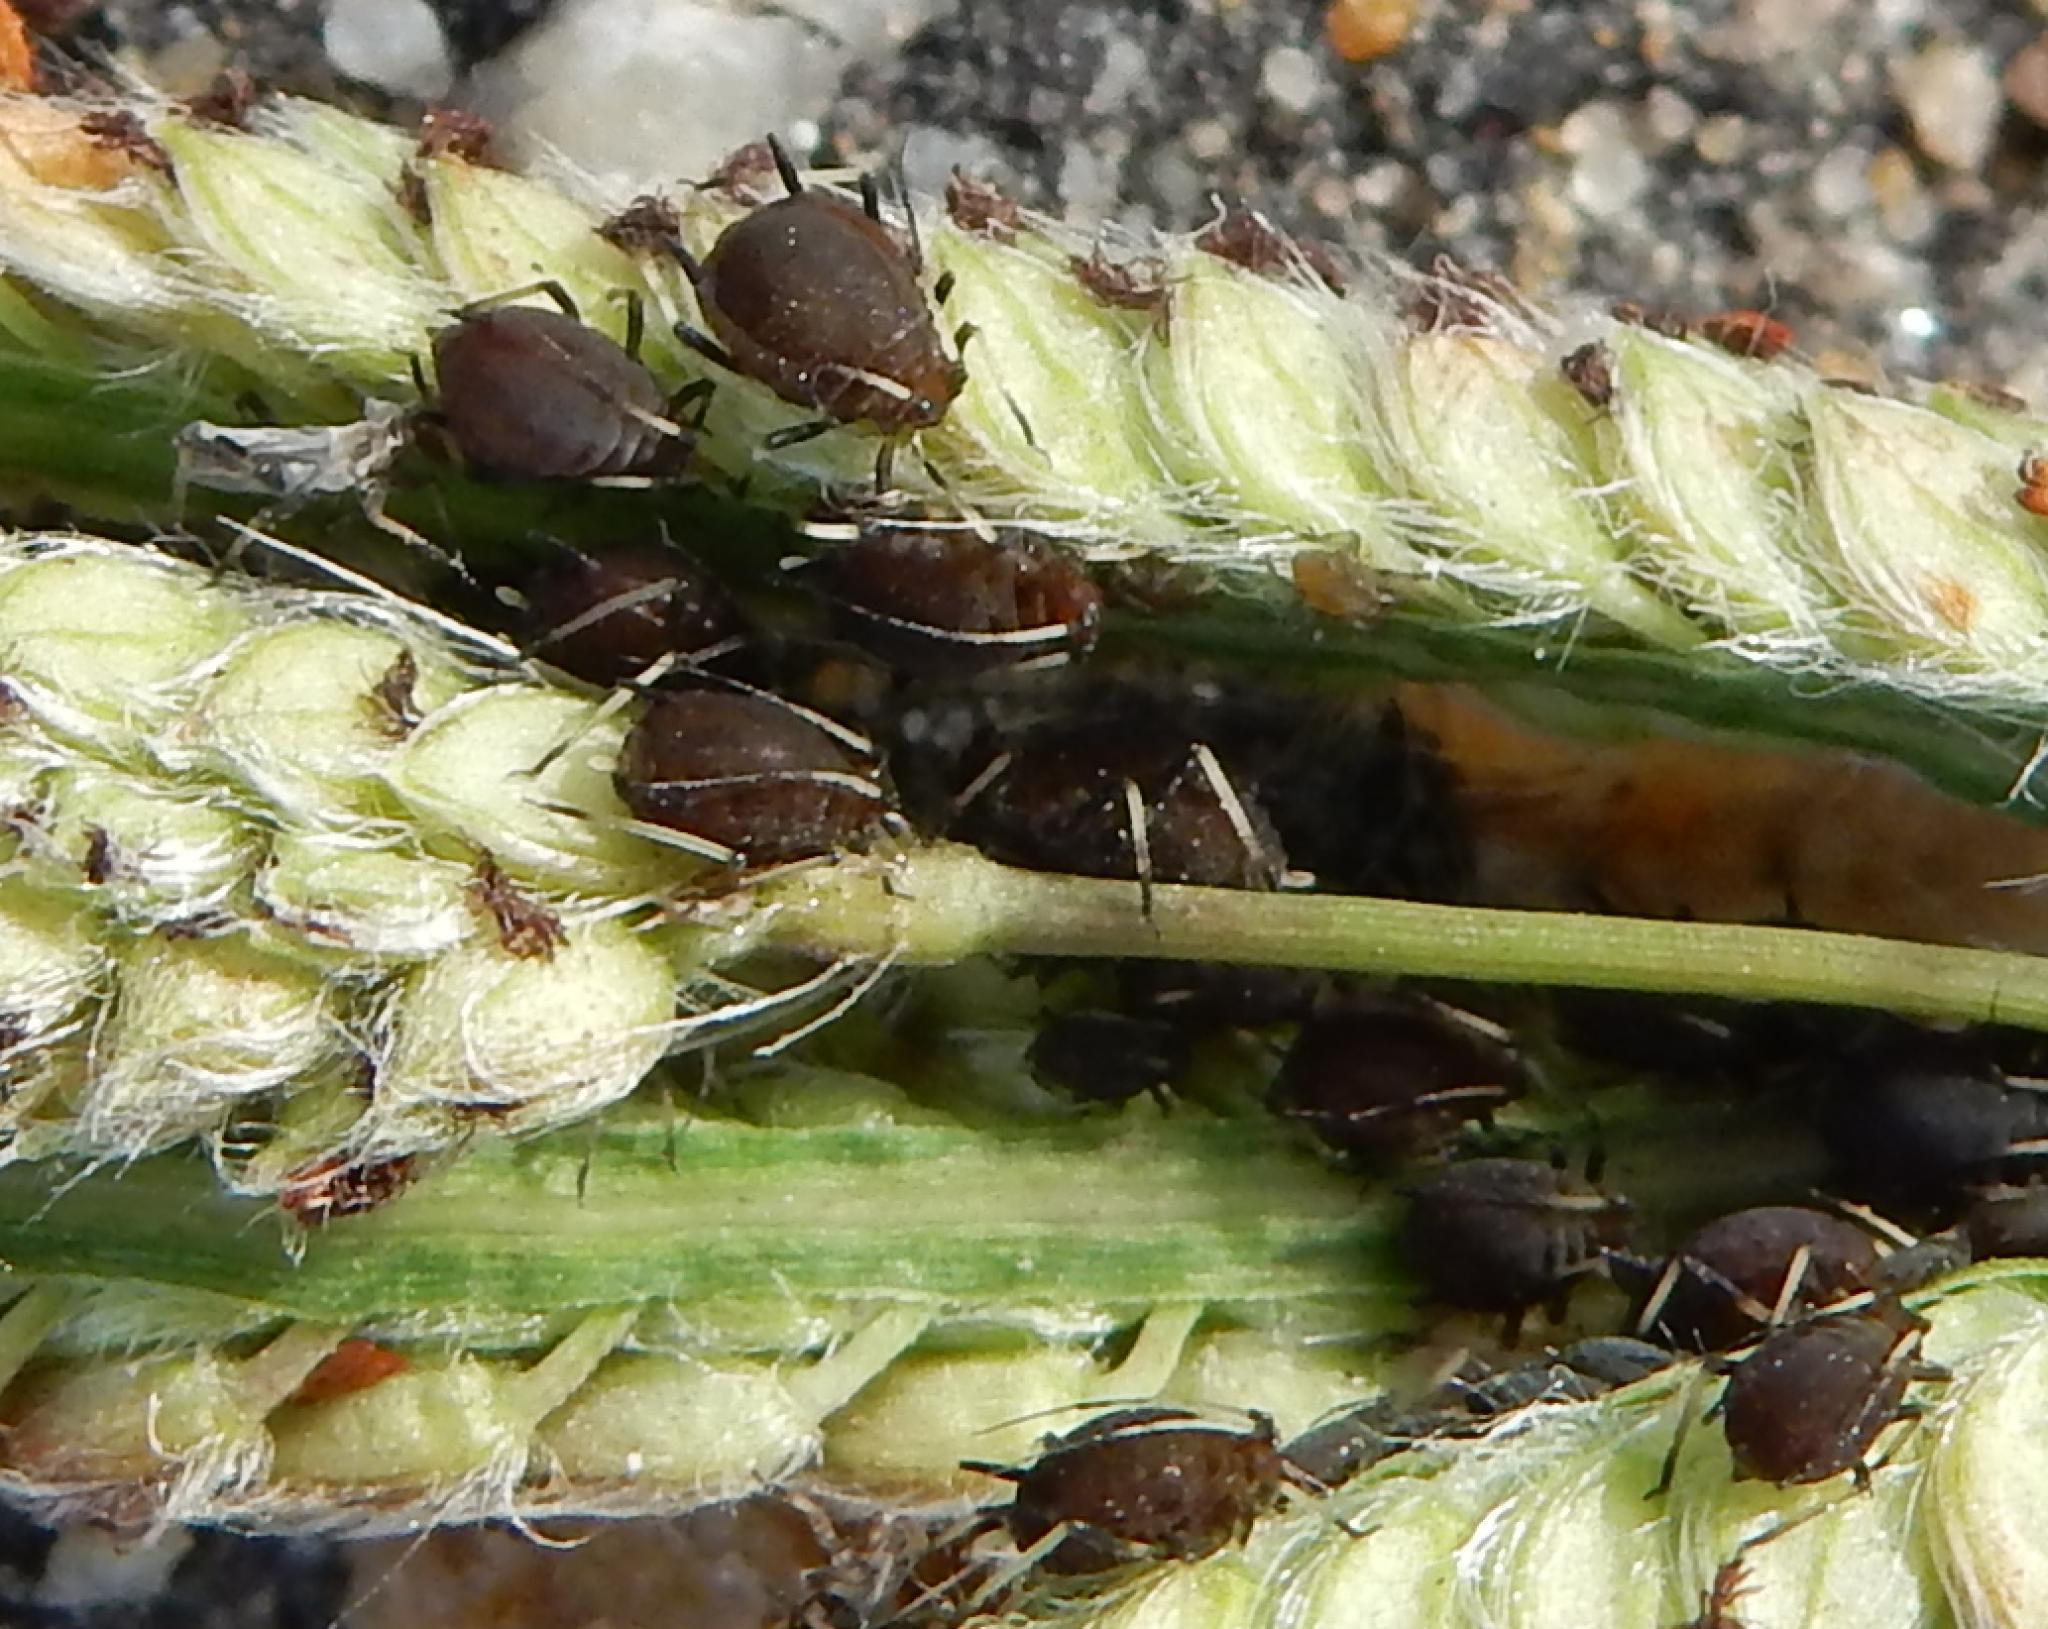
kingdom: Animalia
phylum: Arthropoda
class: Insecta
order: Hemiptera
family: Aphididae
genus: Hysteroneura
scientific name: Hysteroneura setariae
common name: Rusty plum aphid
